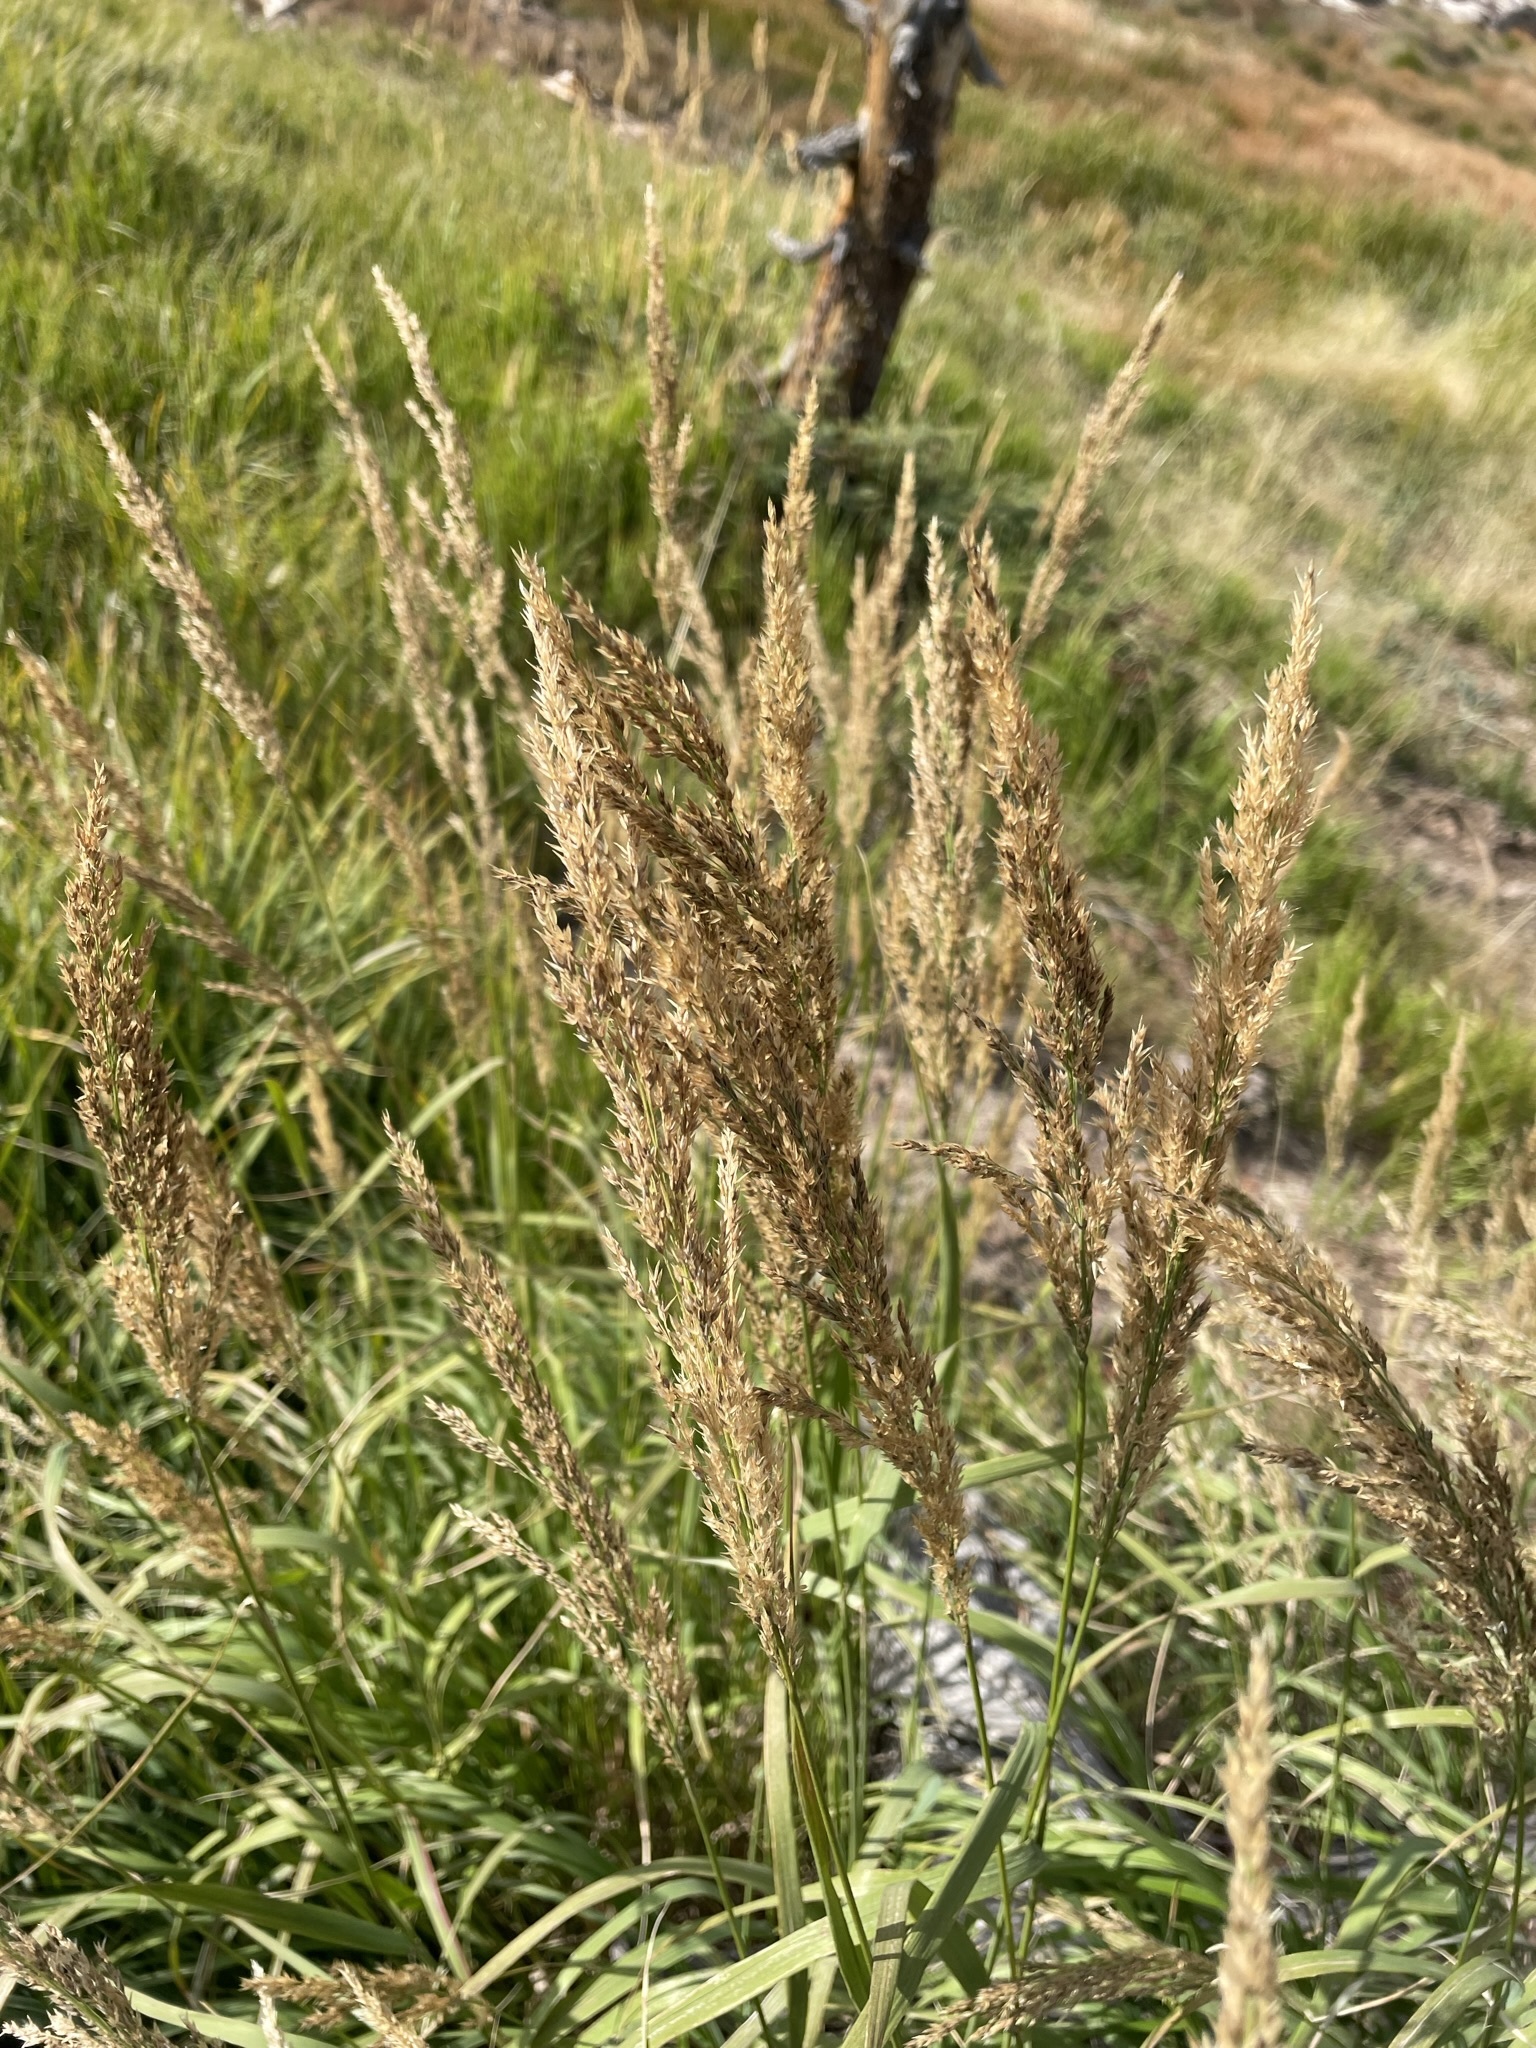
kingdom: Plantae
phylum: Tracheophyta
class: Liliopsida
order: Poales
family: Poaceae
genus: Calamagrostis
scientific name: Calamagrostis canadensis
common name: Canada bluejoint
